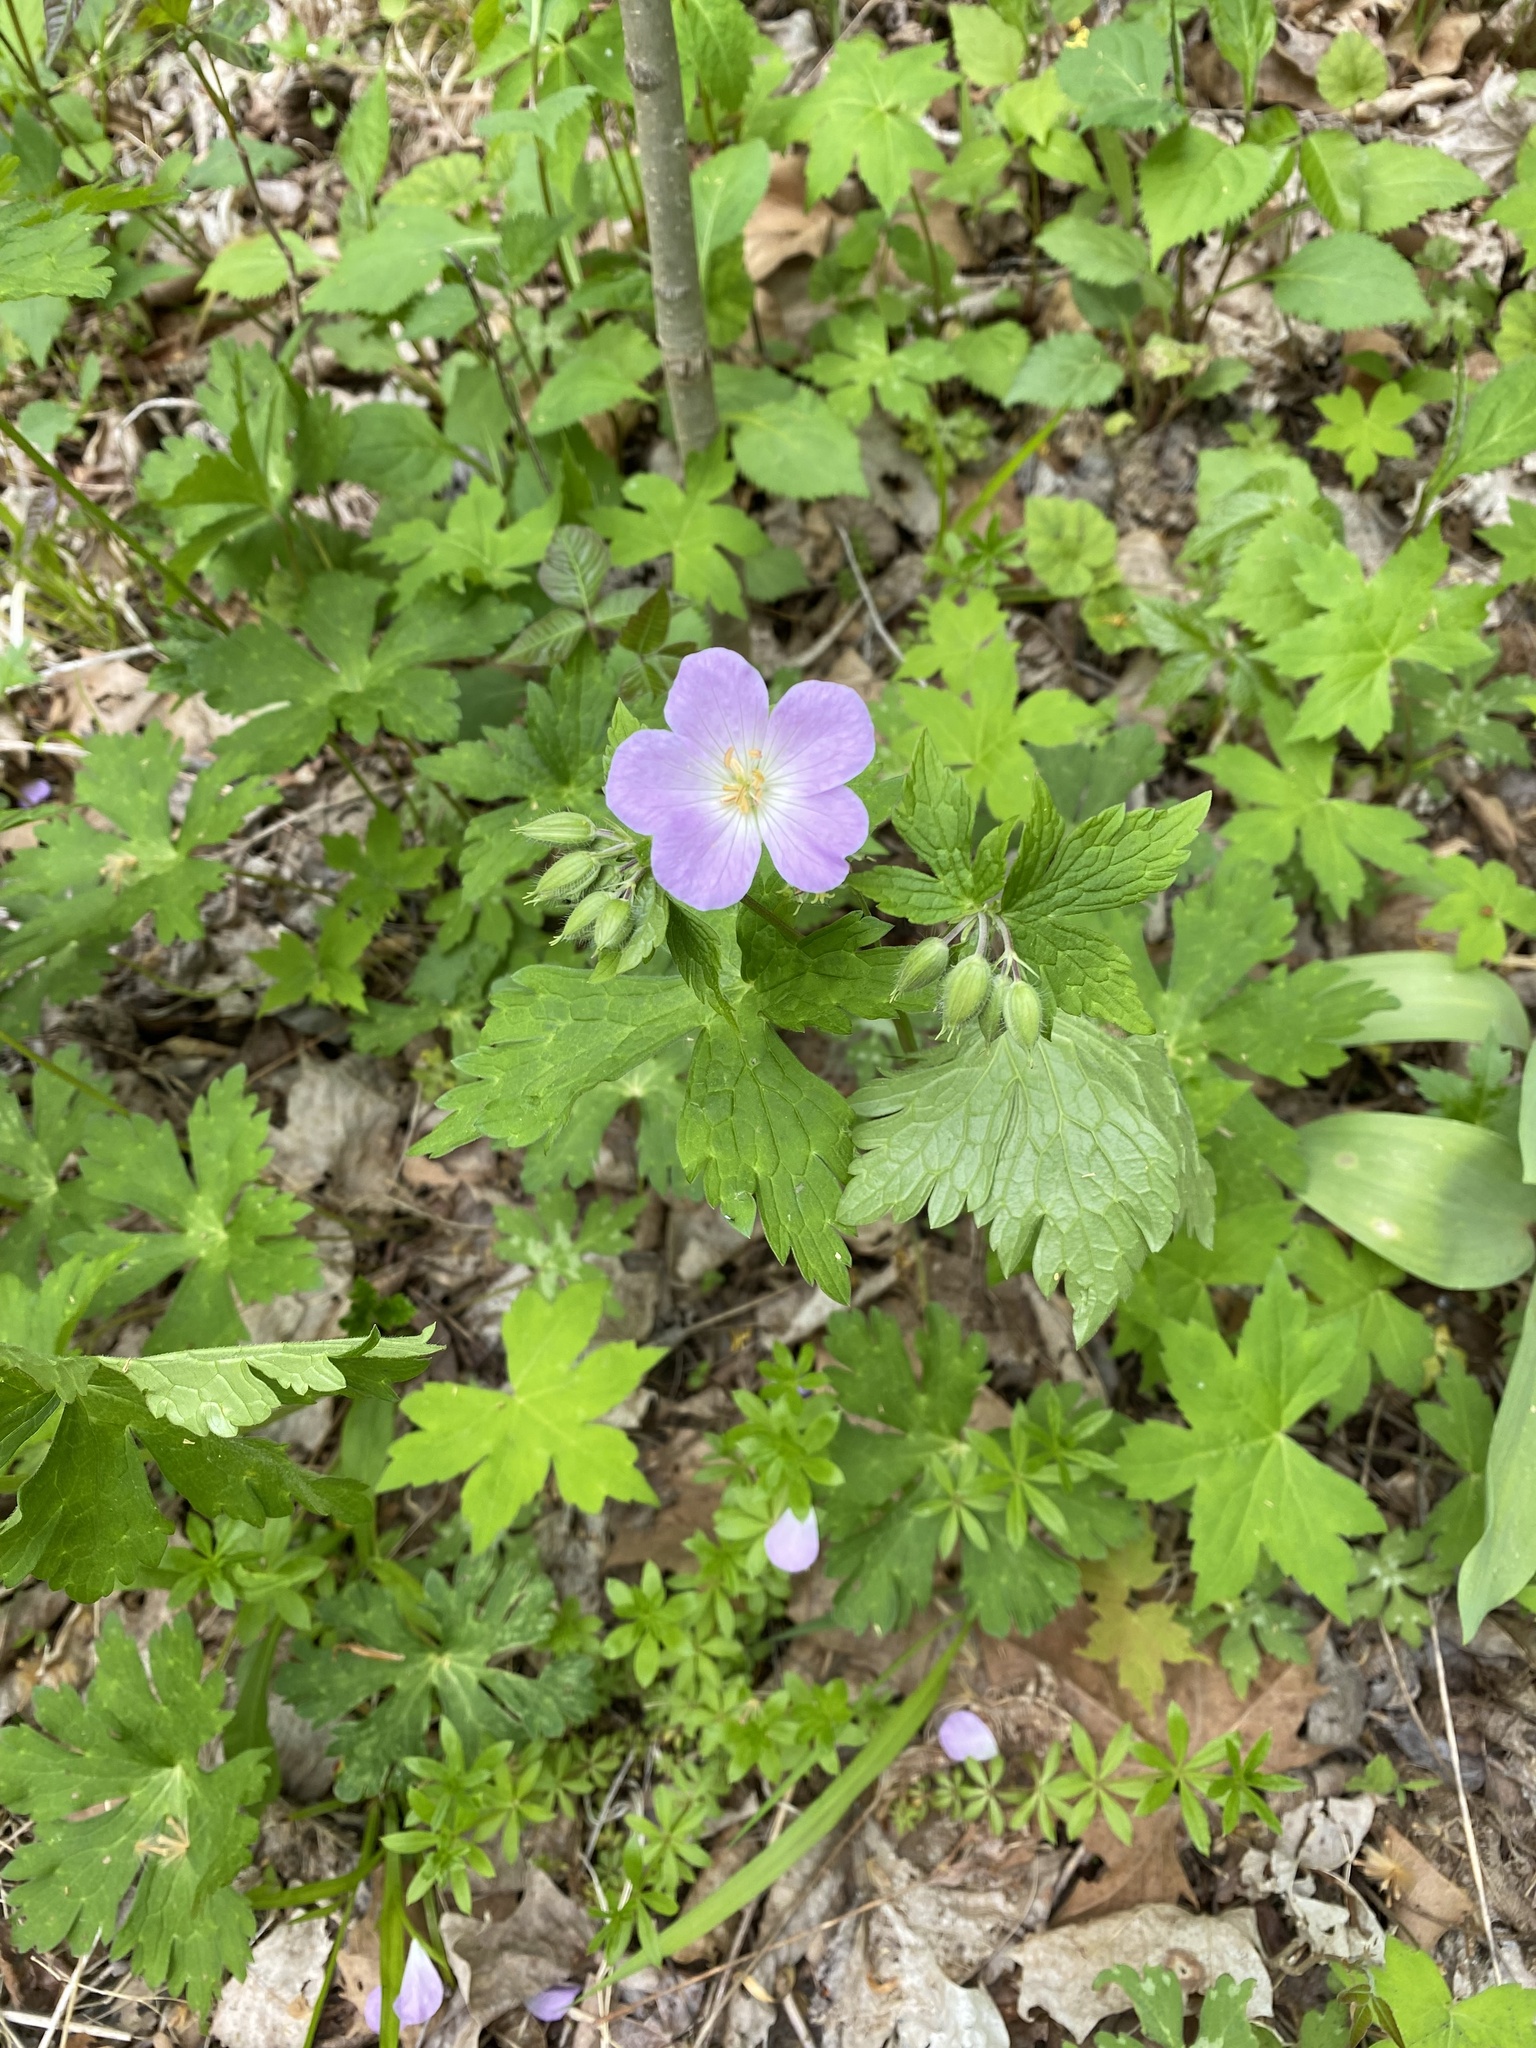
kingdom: Plantae
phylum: Tracheophyta
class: Magnoliopsida
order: Geraniales
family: Geraniaceae
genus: Geranium
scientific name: Geranium maculatum
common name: Spotted geranium
